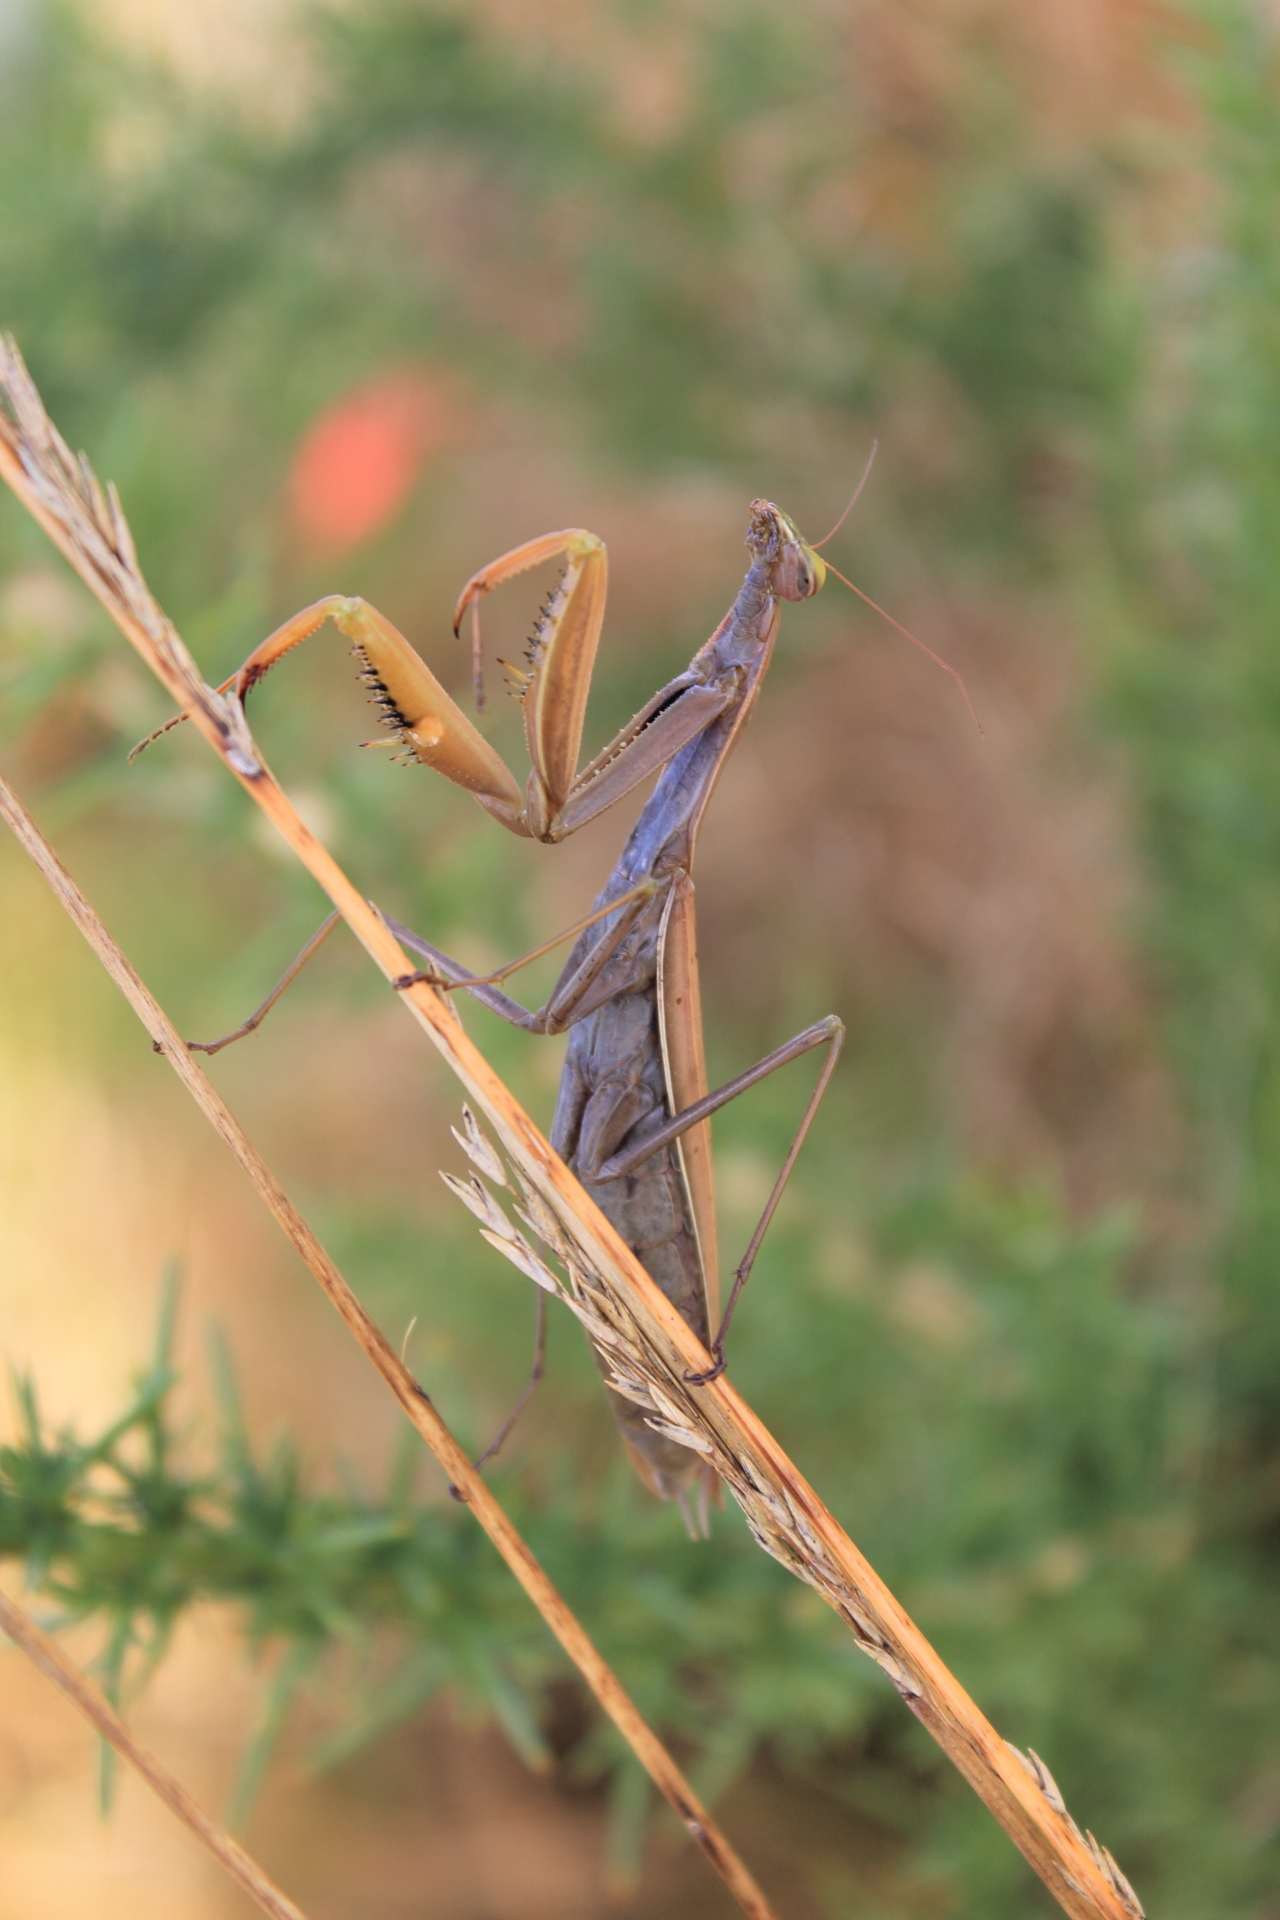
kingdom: Animalia
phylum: Arthropoda
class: Insecta
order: Mantodea
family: Mantidae
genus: Mantis
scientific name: Mantis religiosa
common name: Praying mantis
